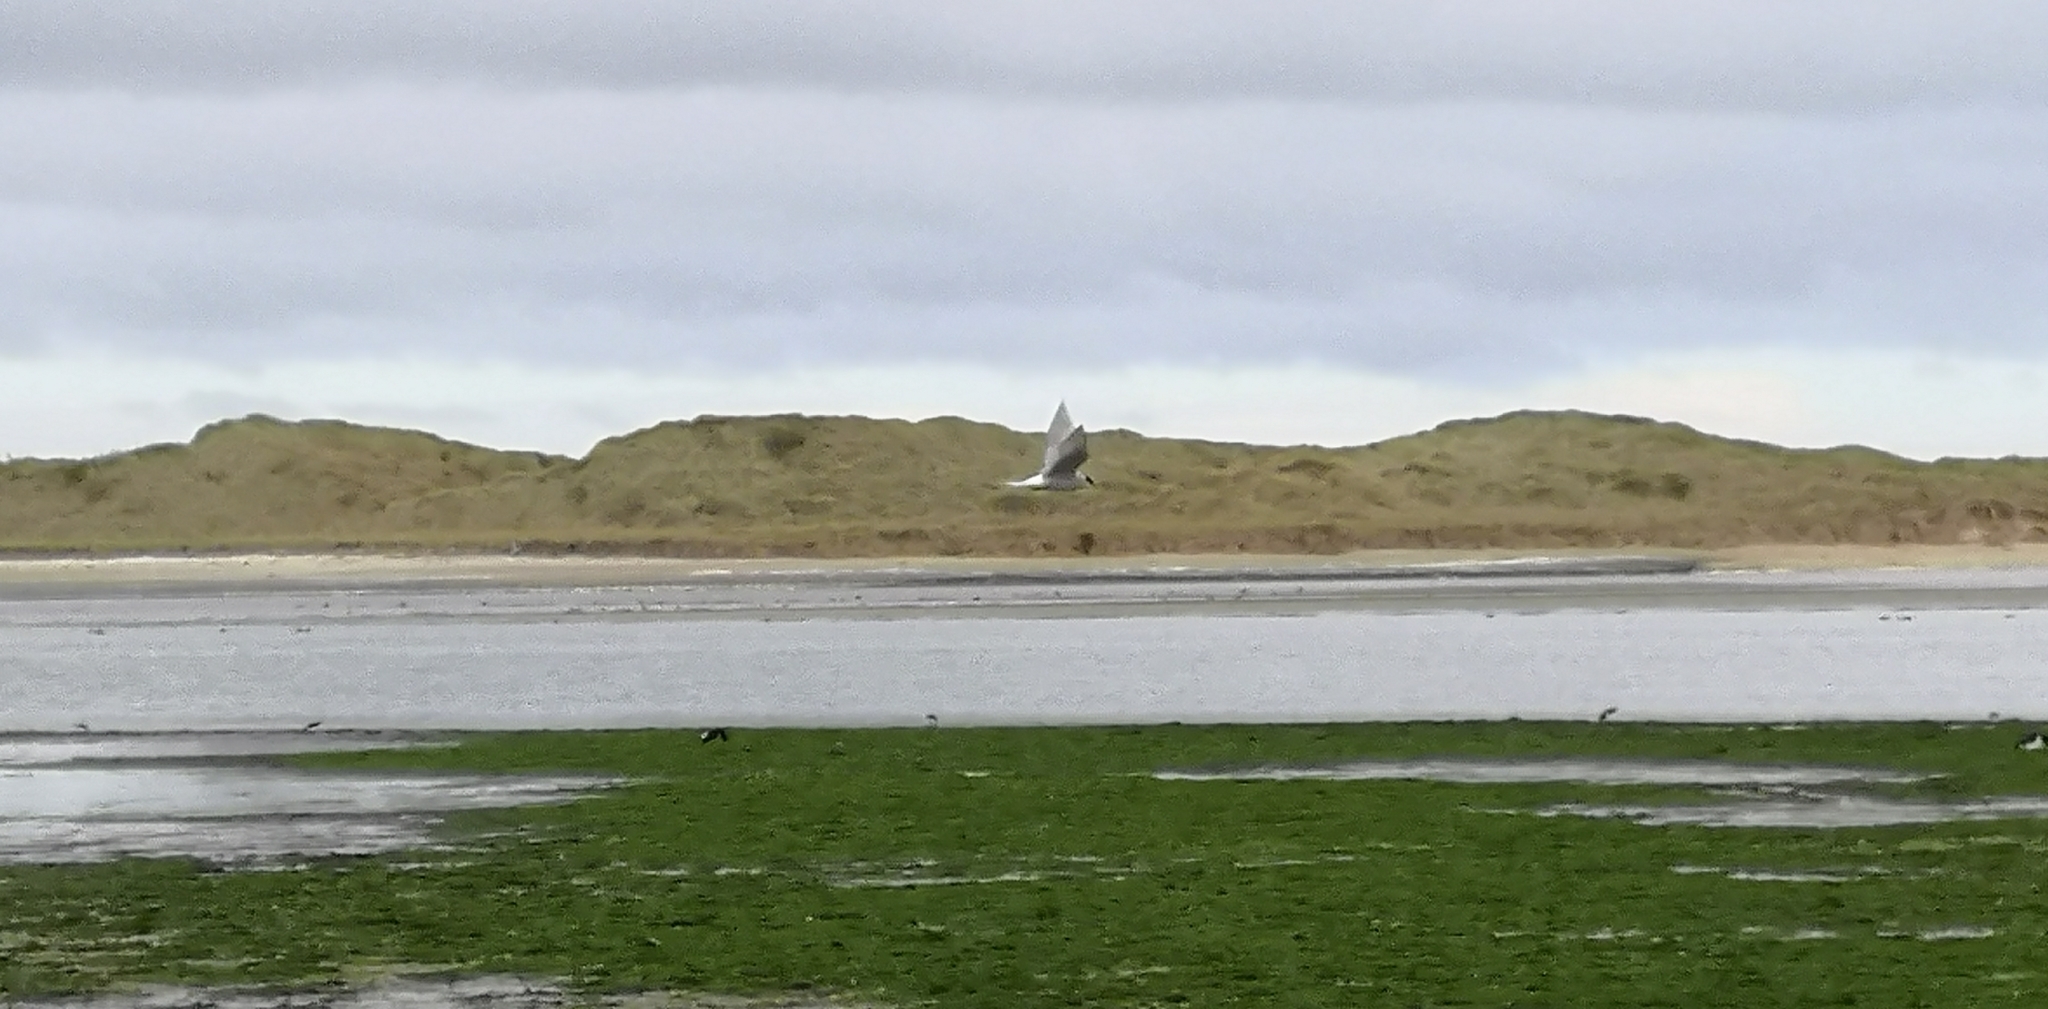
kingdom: Animalia
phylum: Chordata
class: Aves
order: Charadriiformes
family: Laridae
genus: Chlidonias
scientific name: Chlidonias albostriatus
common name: Black-fronted tern
